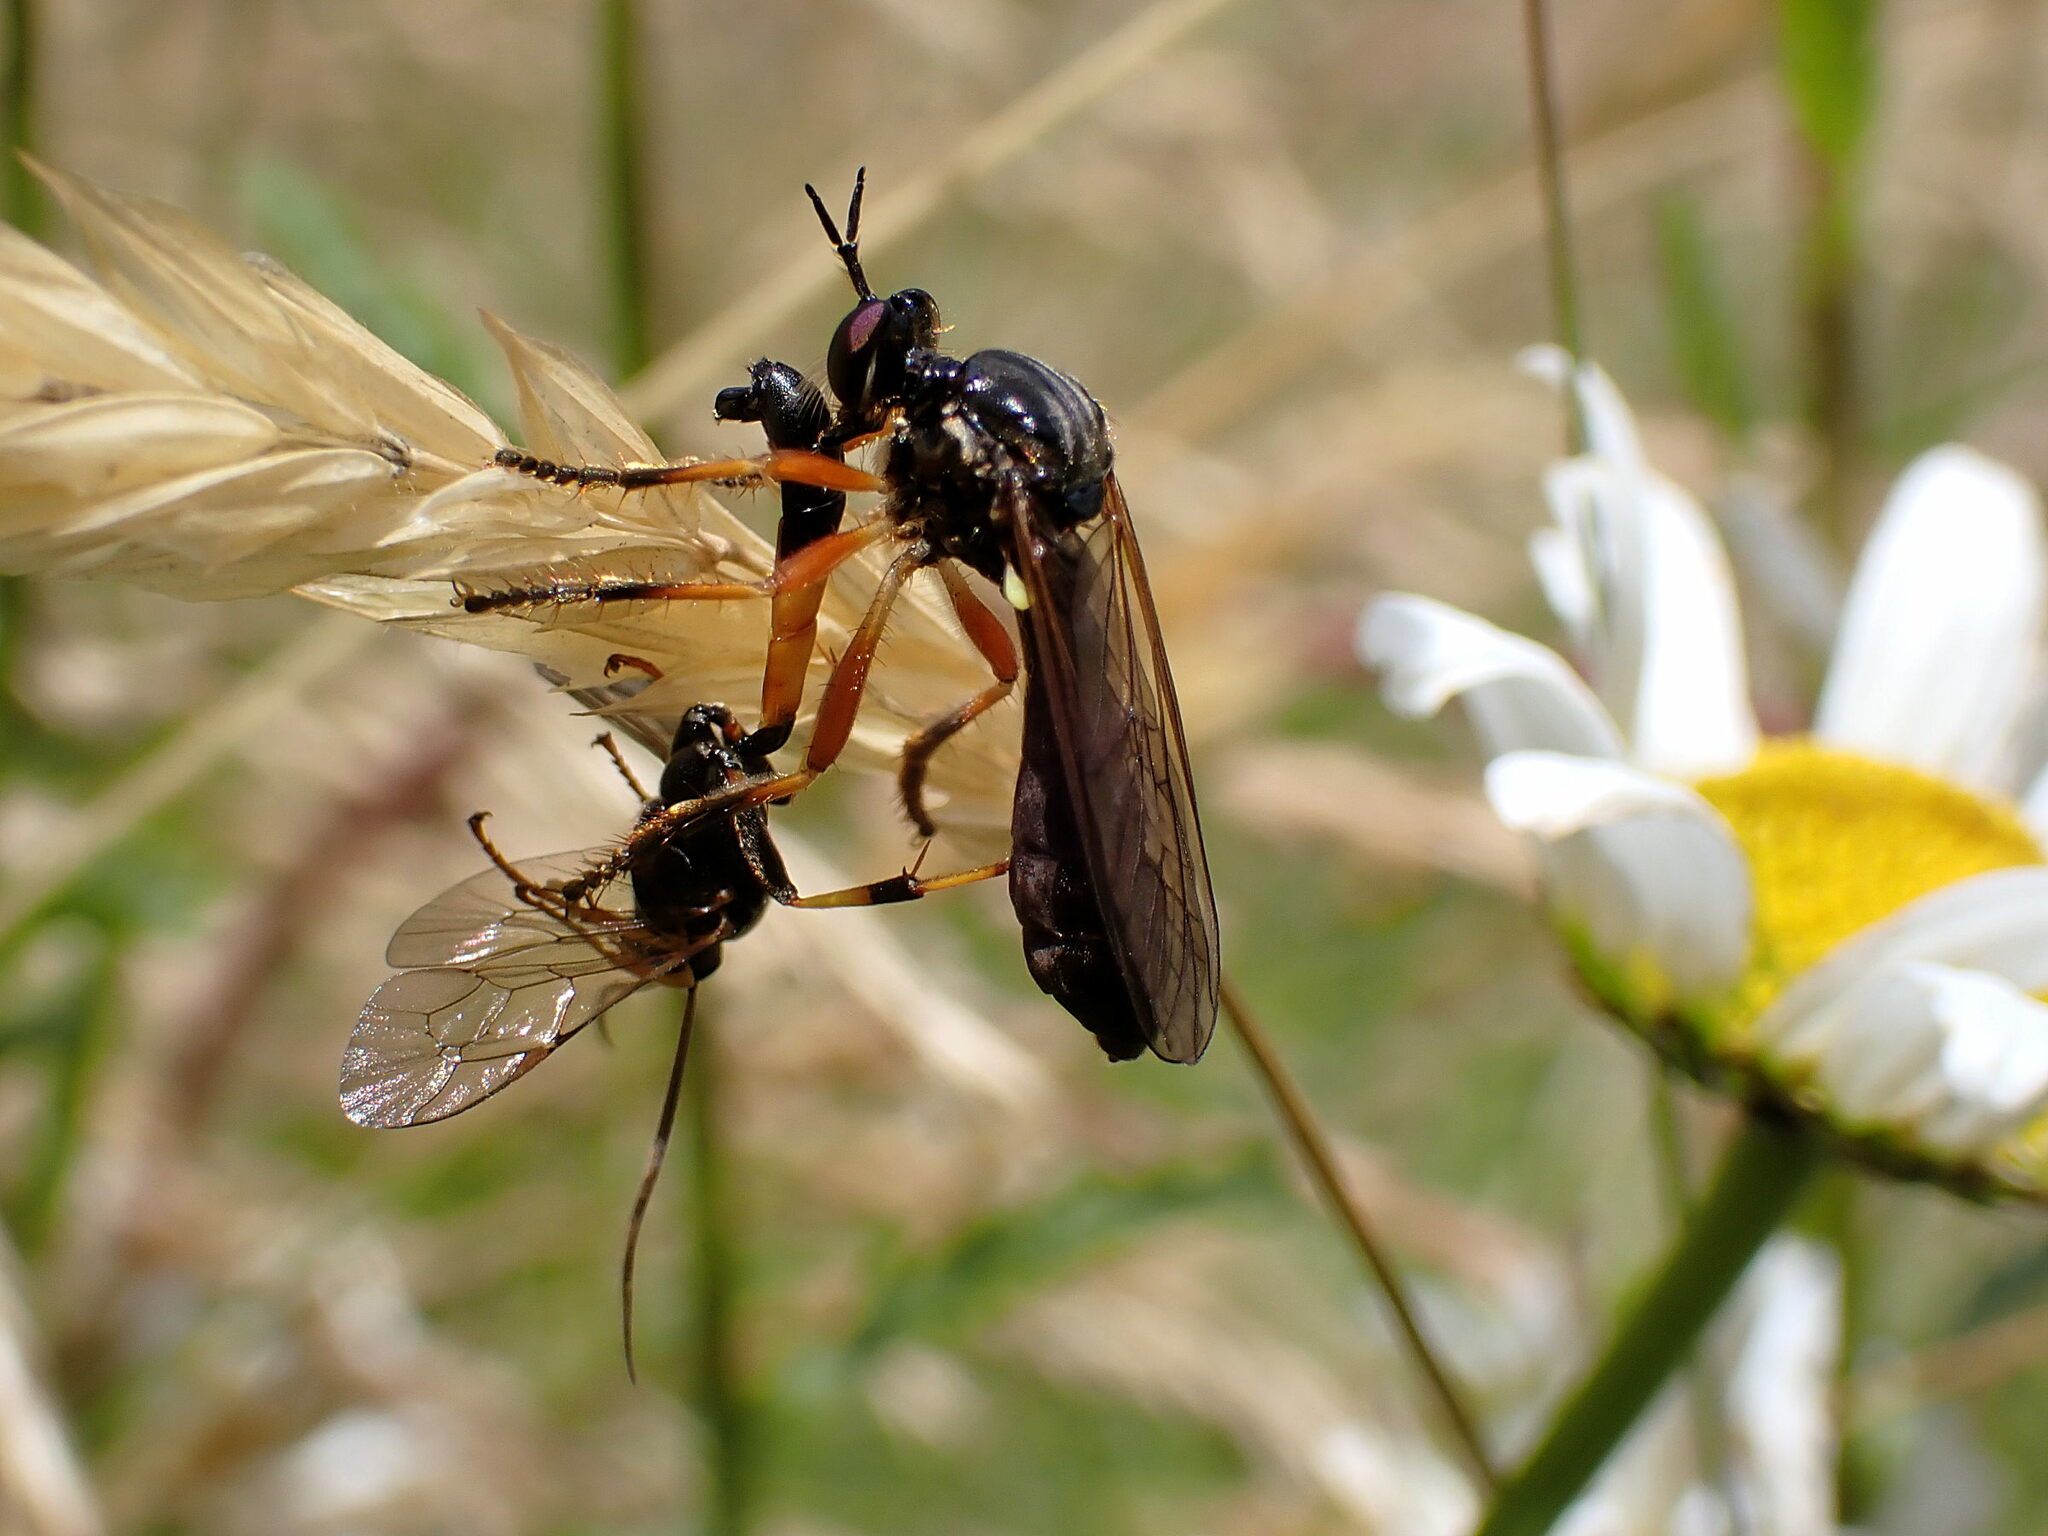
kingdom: Animalia
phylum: Arthropoda
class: Insecta
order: Diptera
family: Asilidae
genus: Dioctria
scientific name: Dioctria cothurnata
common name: Scarce red-legged robberfly
